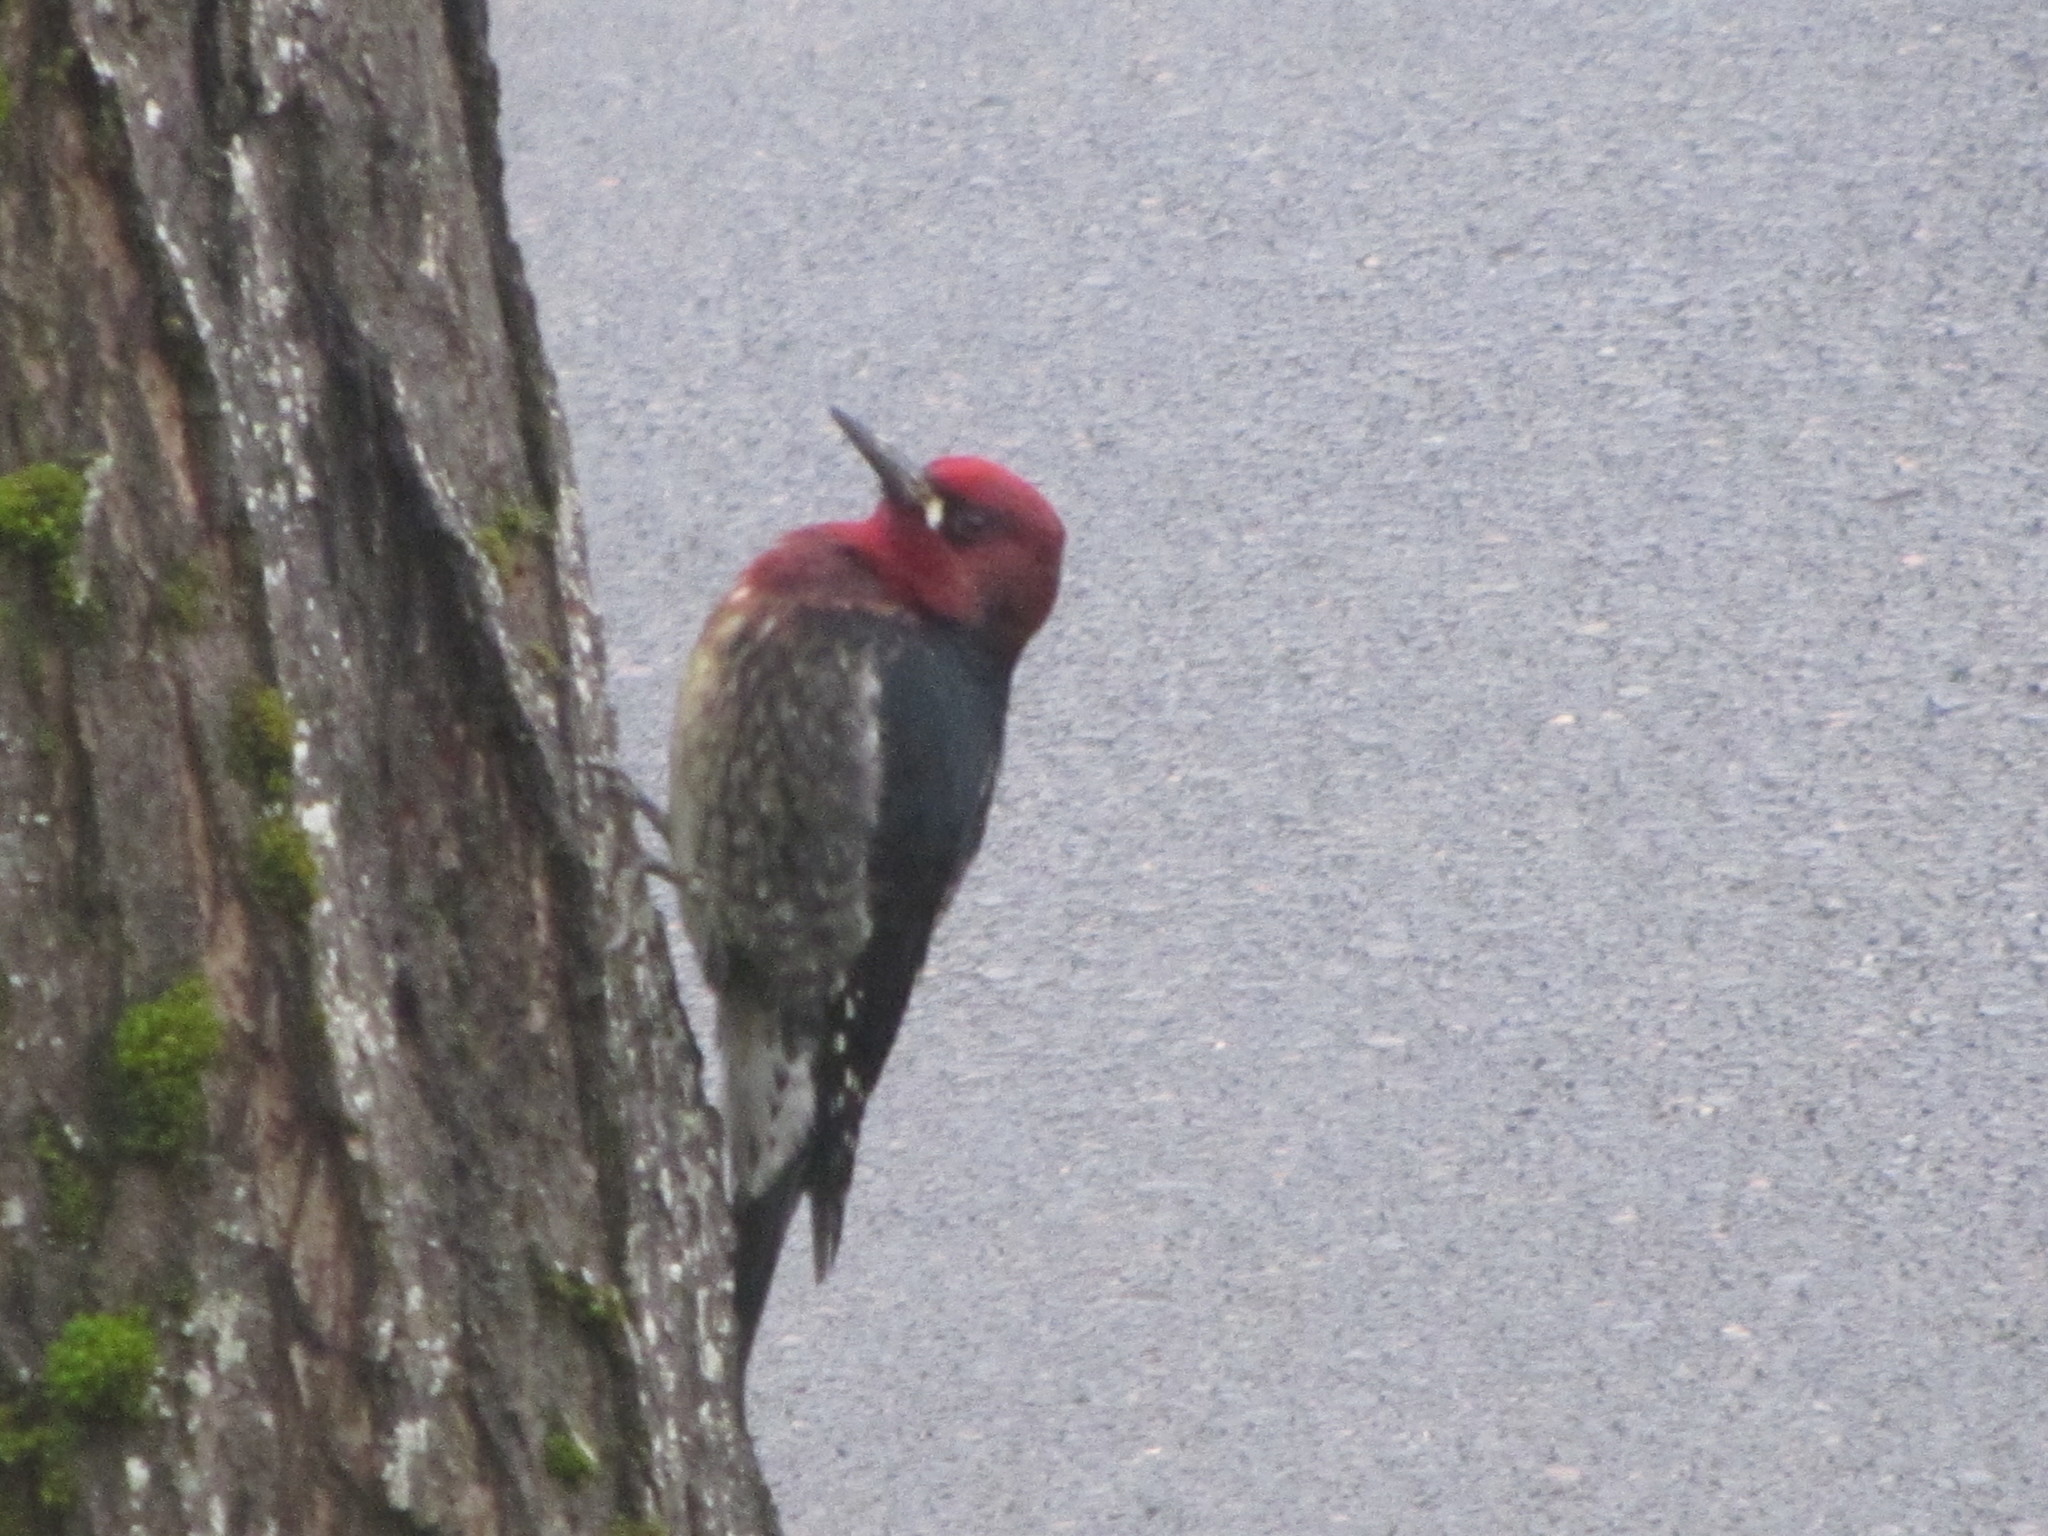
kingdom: Animalia
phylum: Chordata
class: Aves
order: Piciformes
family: Picidae
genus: Sphyrapicus
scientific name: Sphyrapicus ruber
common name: Red-breasted sapsucker
